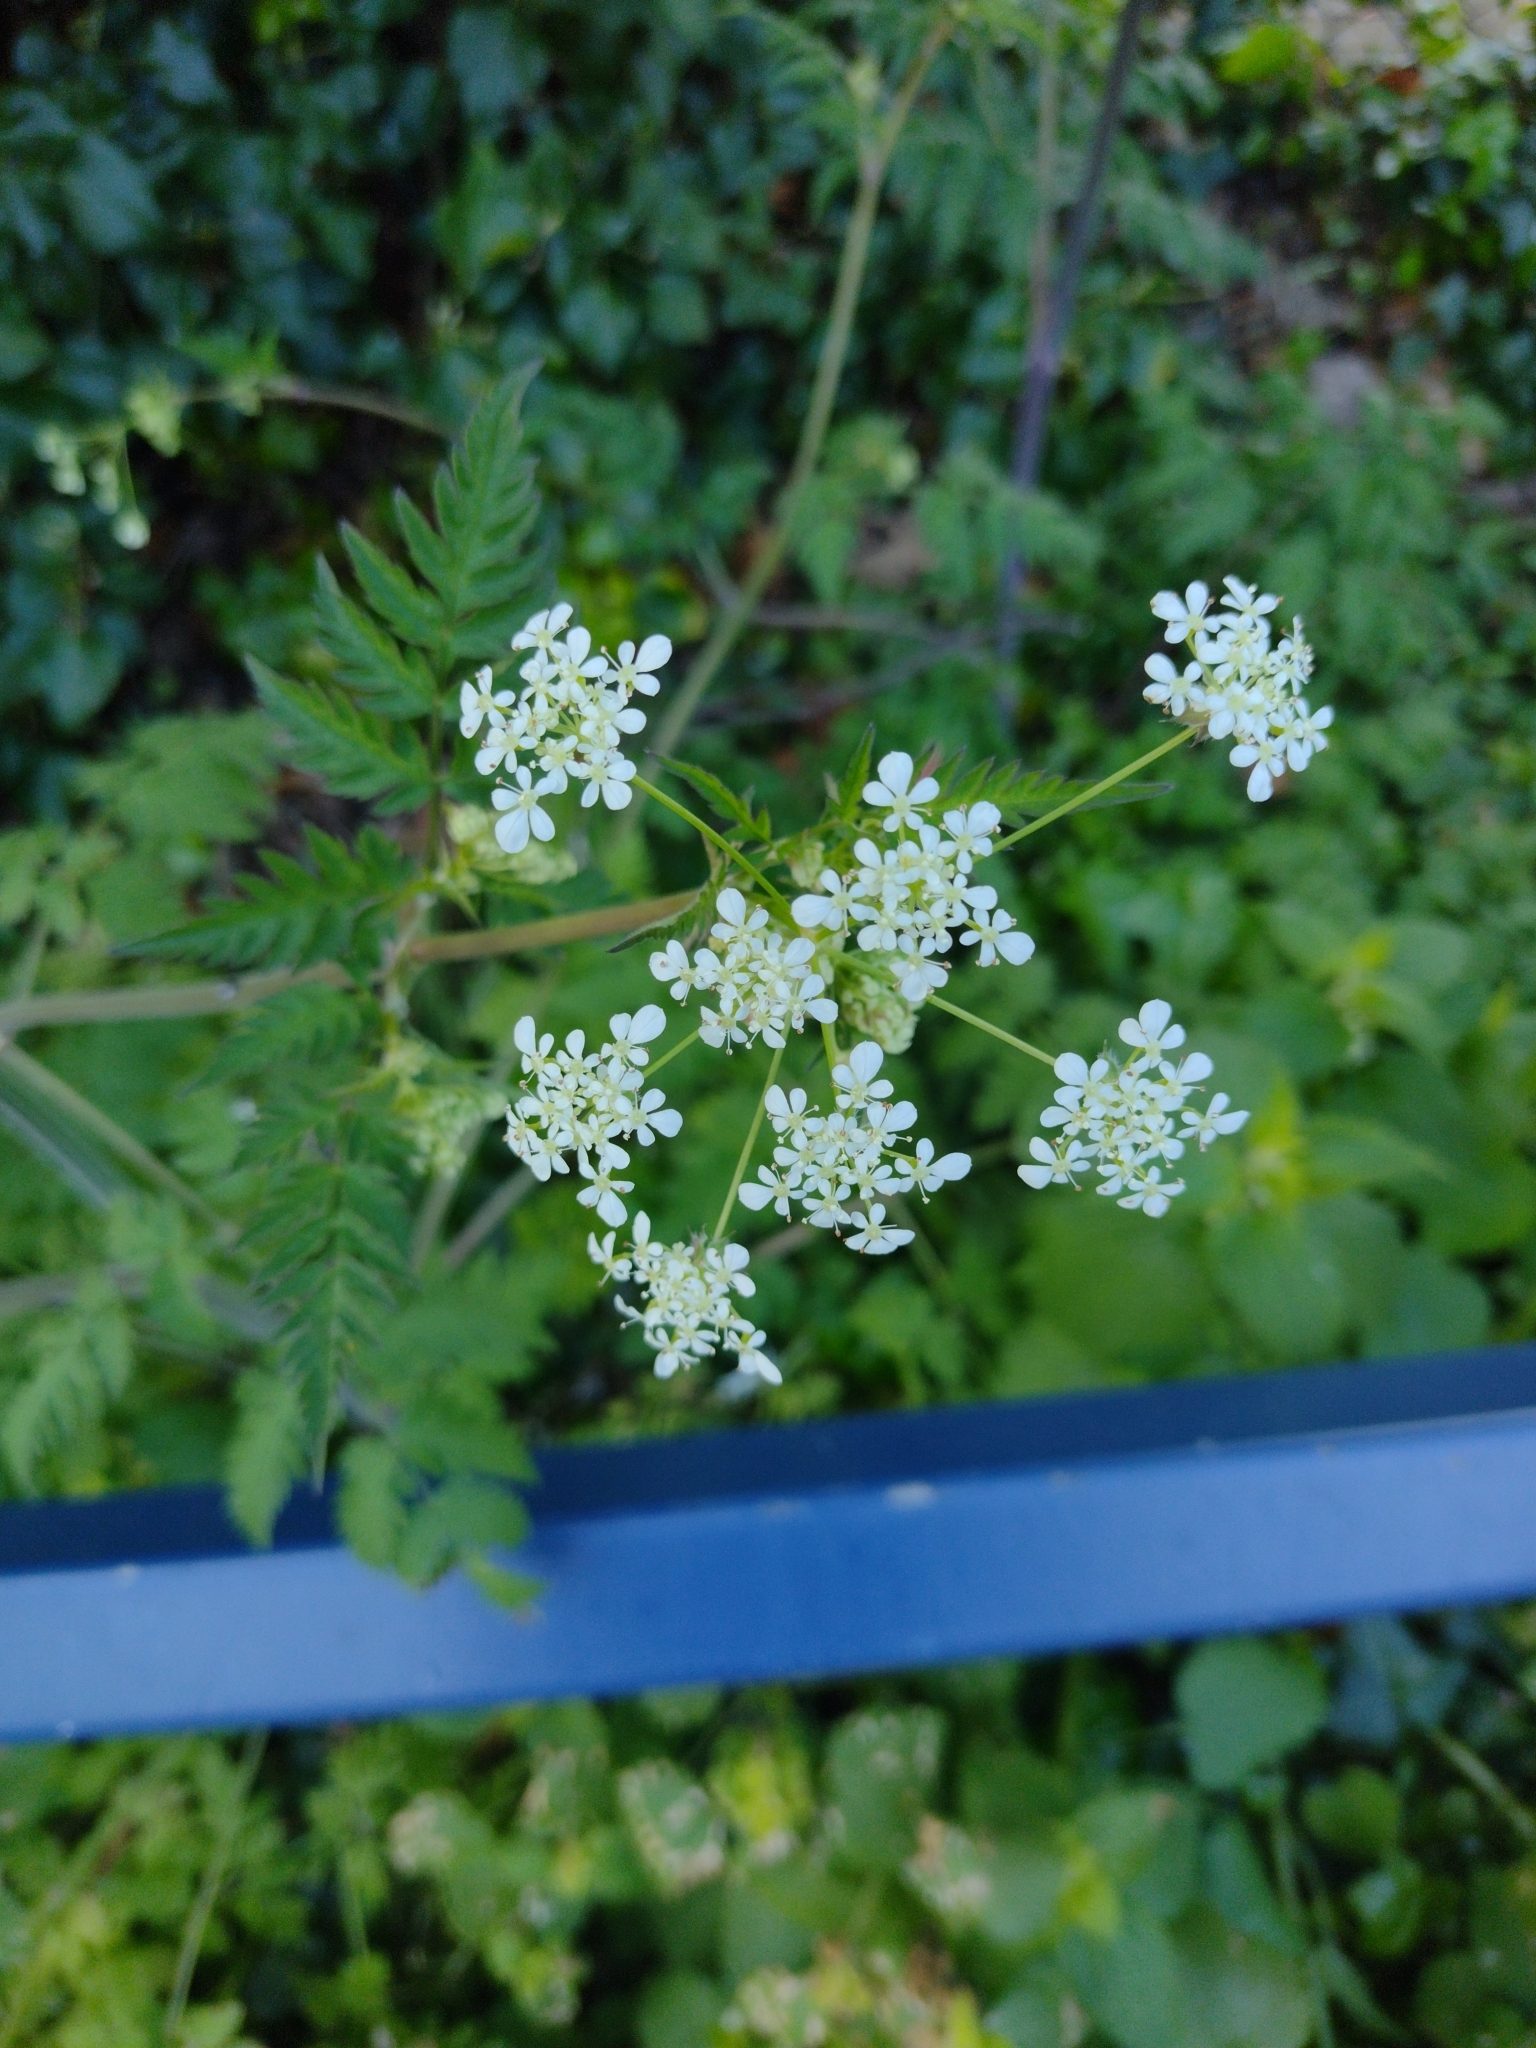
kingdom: Plantae
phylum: Tracheophyta
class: Magnoliopsida
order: Apiales
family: Apiaceae
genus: Anthriscus
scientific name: Anthriscus sylvestris
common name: Cow parsley
